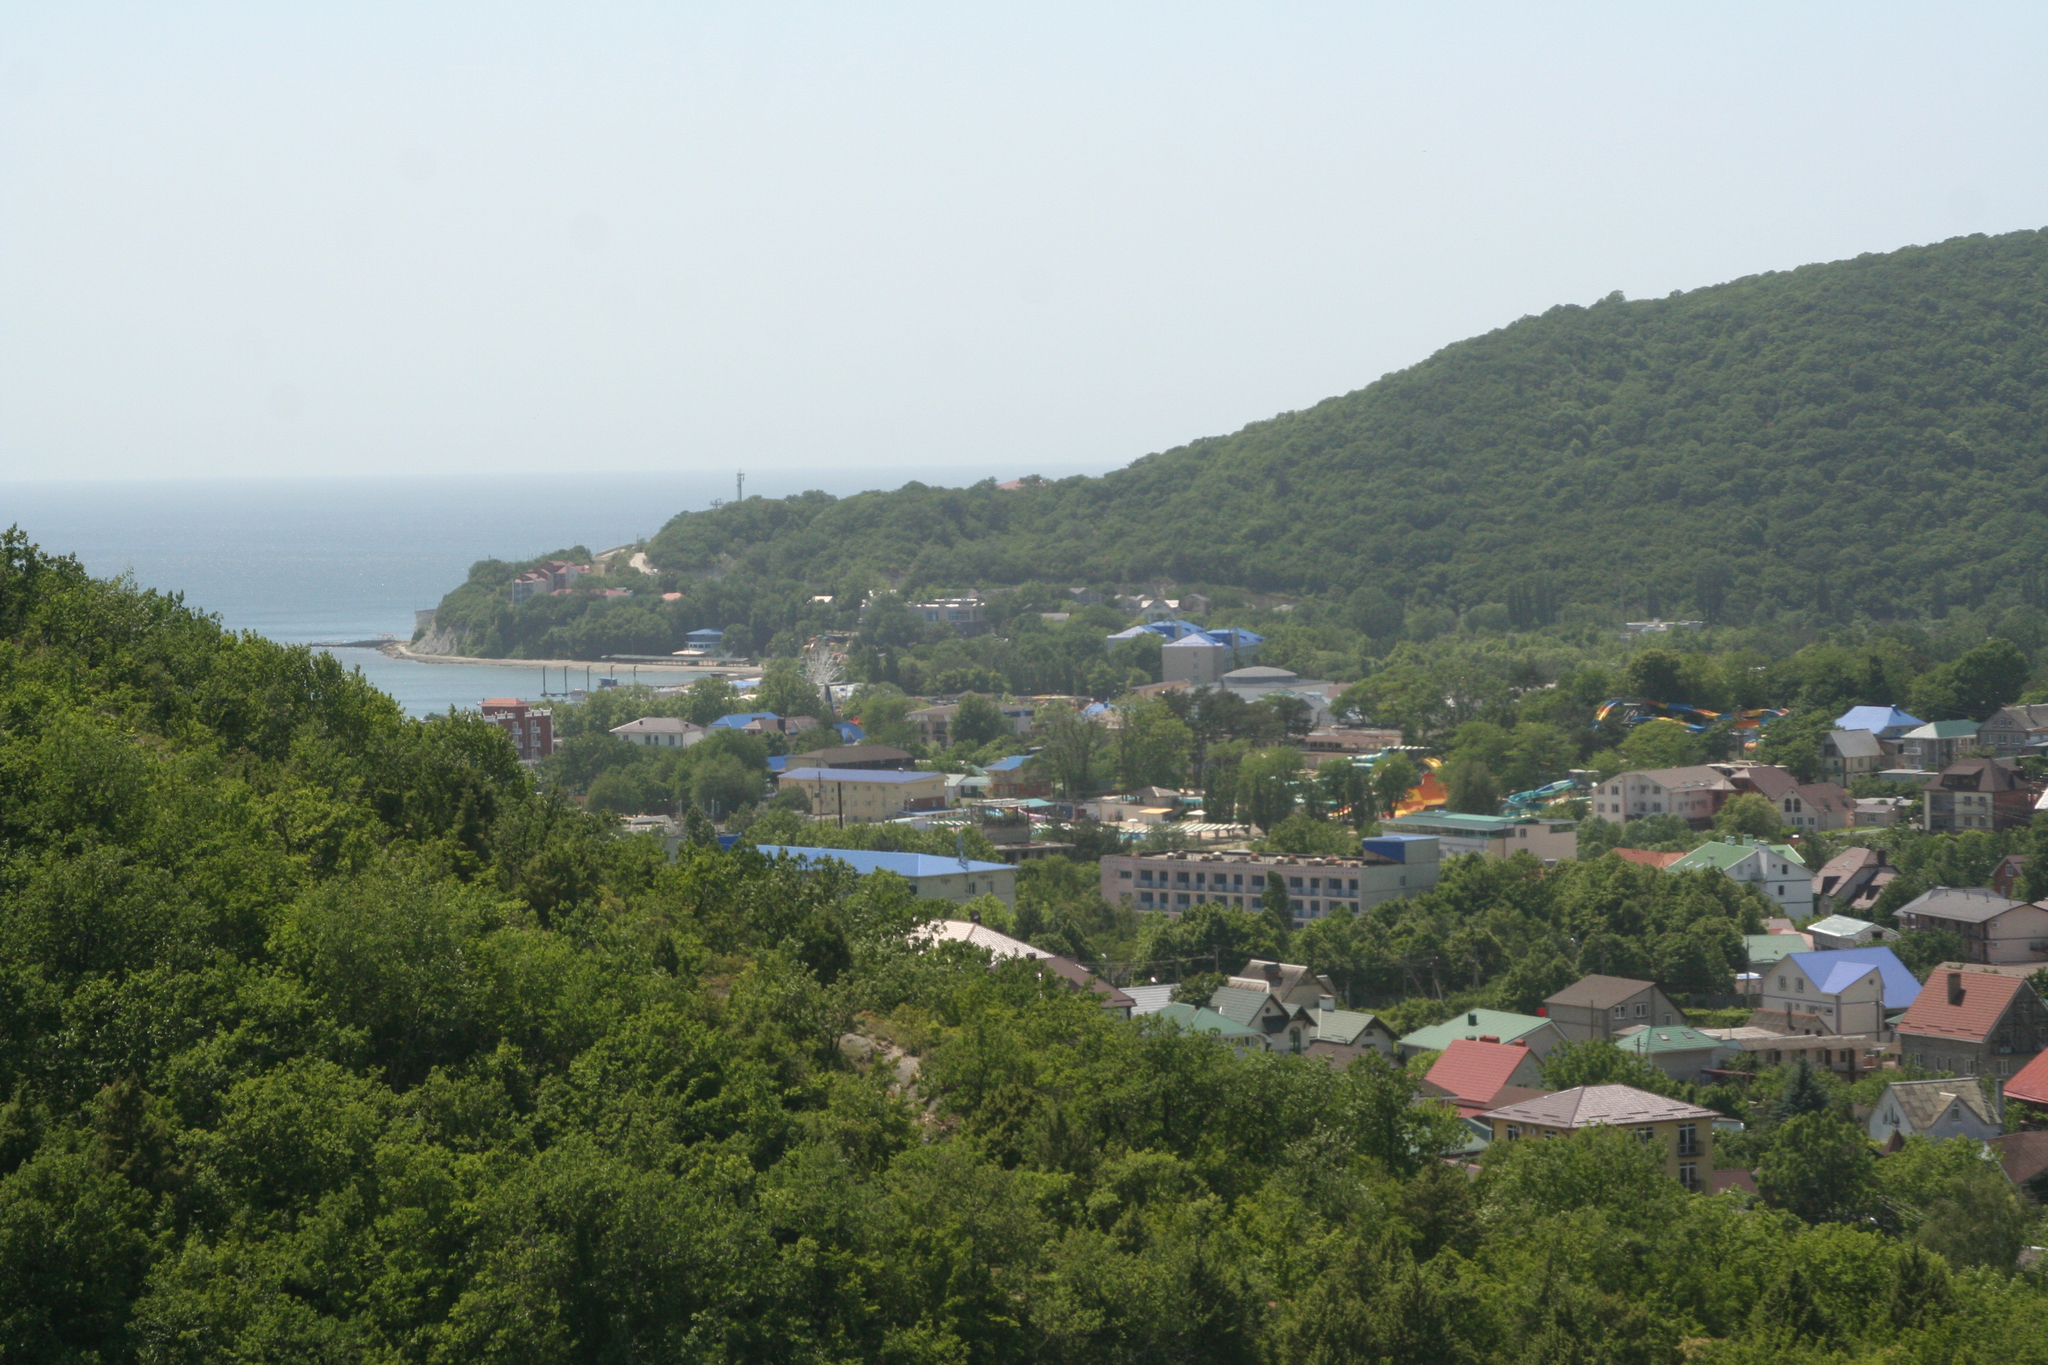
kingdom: Plantae
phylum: Tracheophyta
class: Magnoliopsida
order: Fagales
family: Fagaceae
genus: Quercus
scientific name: Quercus pubescens
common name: Downy oak
